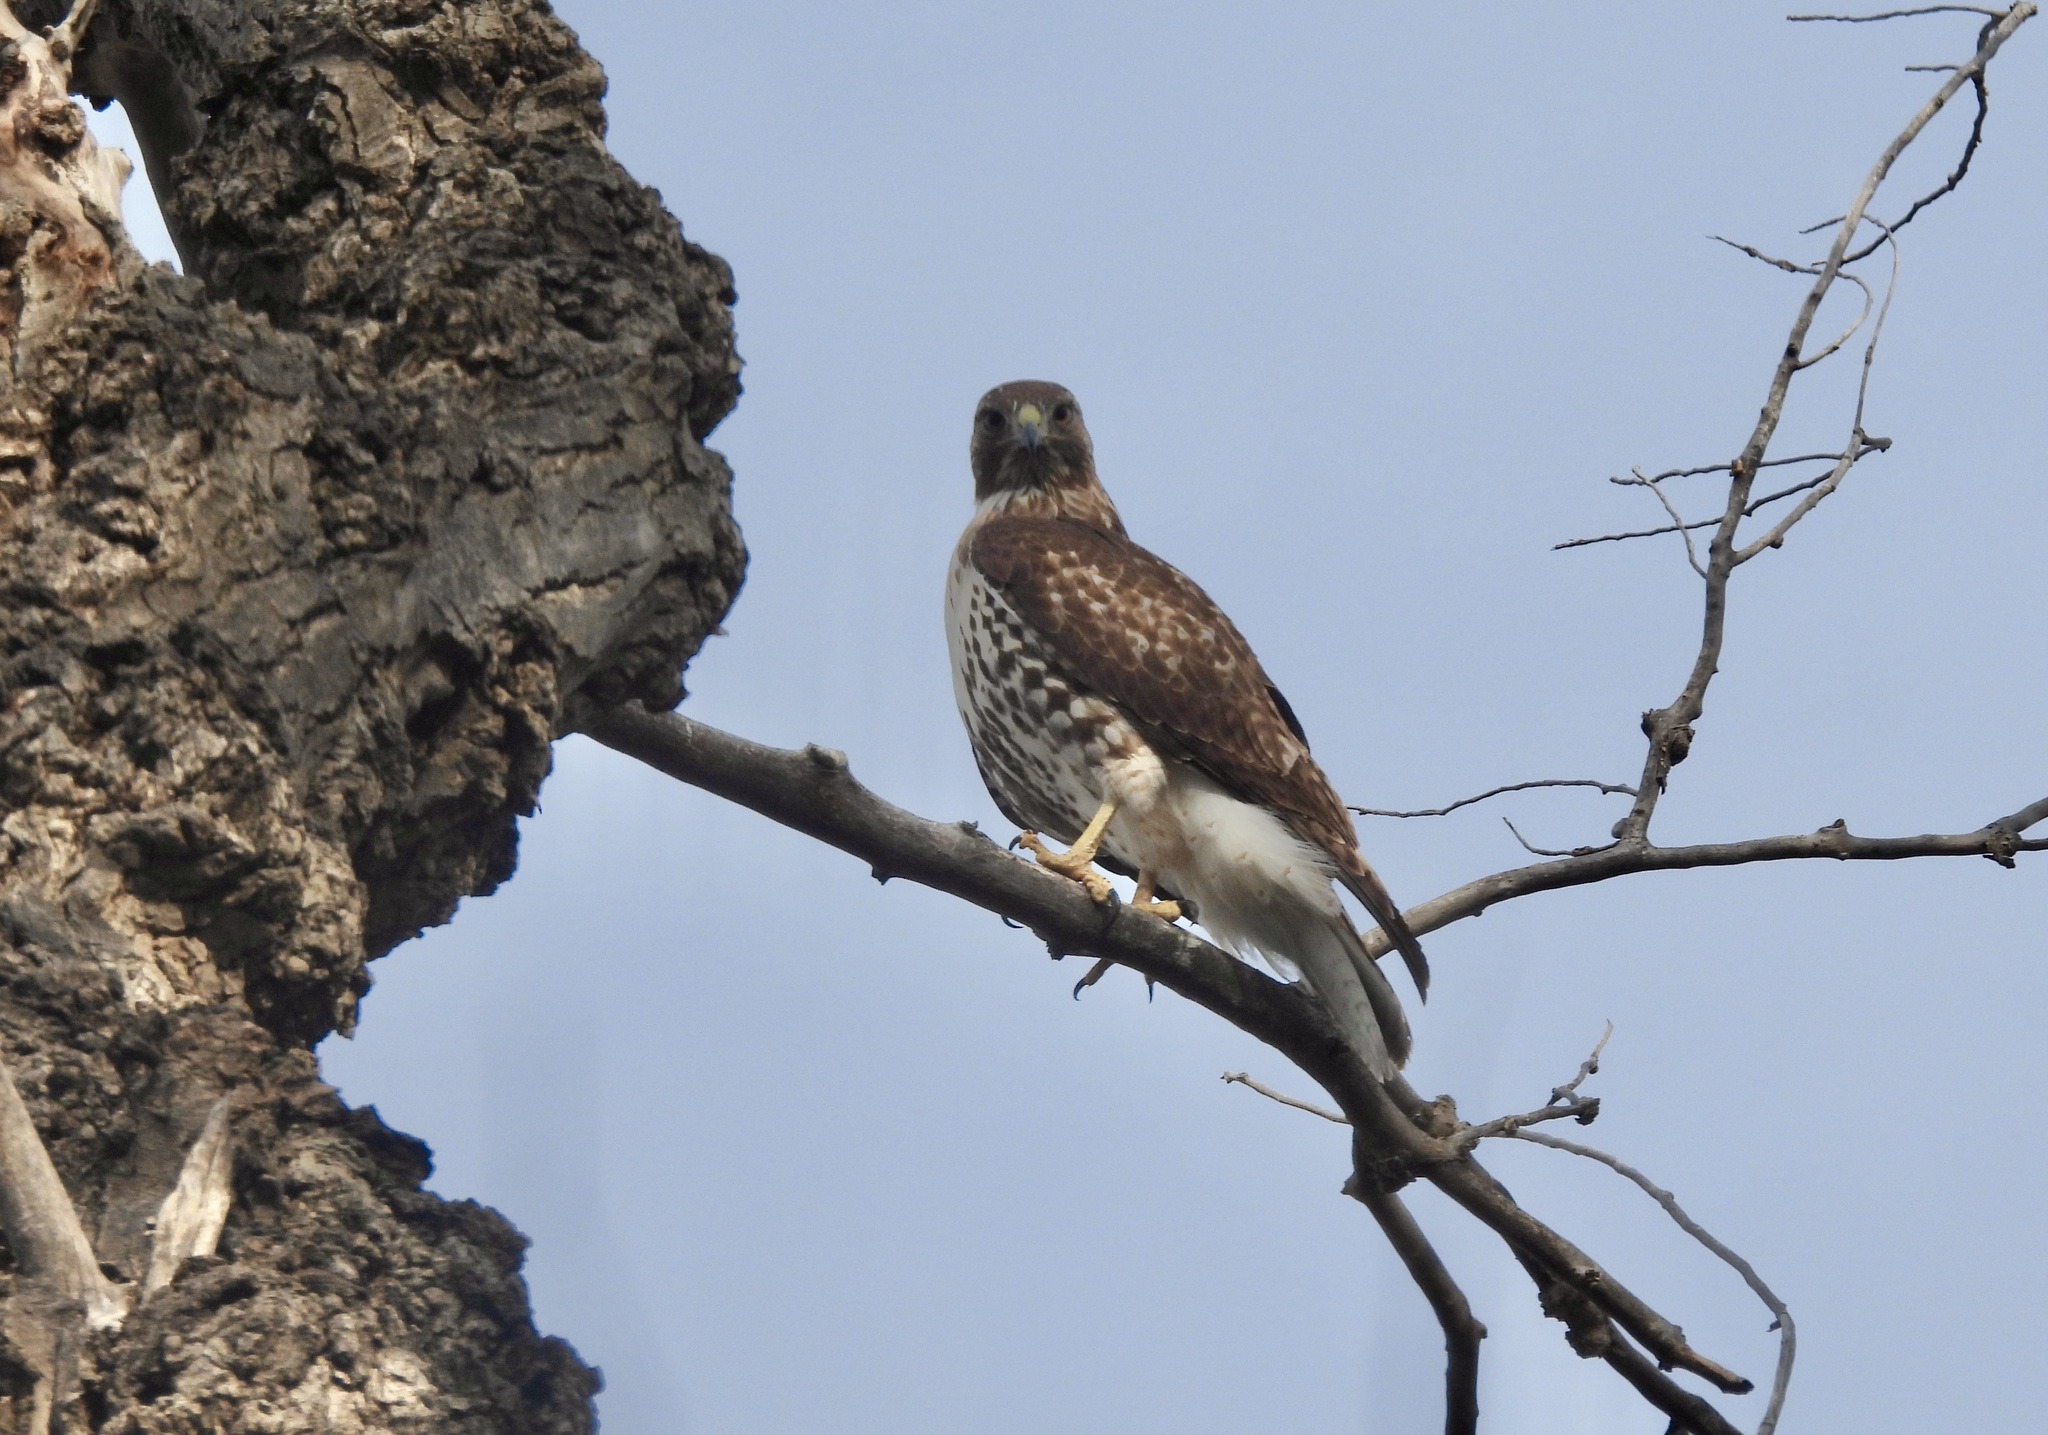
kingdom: Animalia
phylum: Chordata
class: Aves
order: Accipitriformes
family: Accipitridae
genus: Buteo
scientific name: Buteo jamaicensis
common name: Red-tailed hawk
